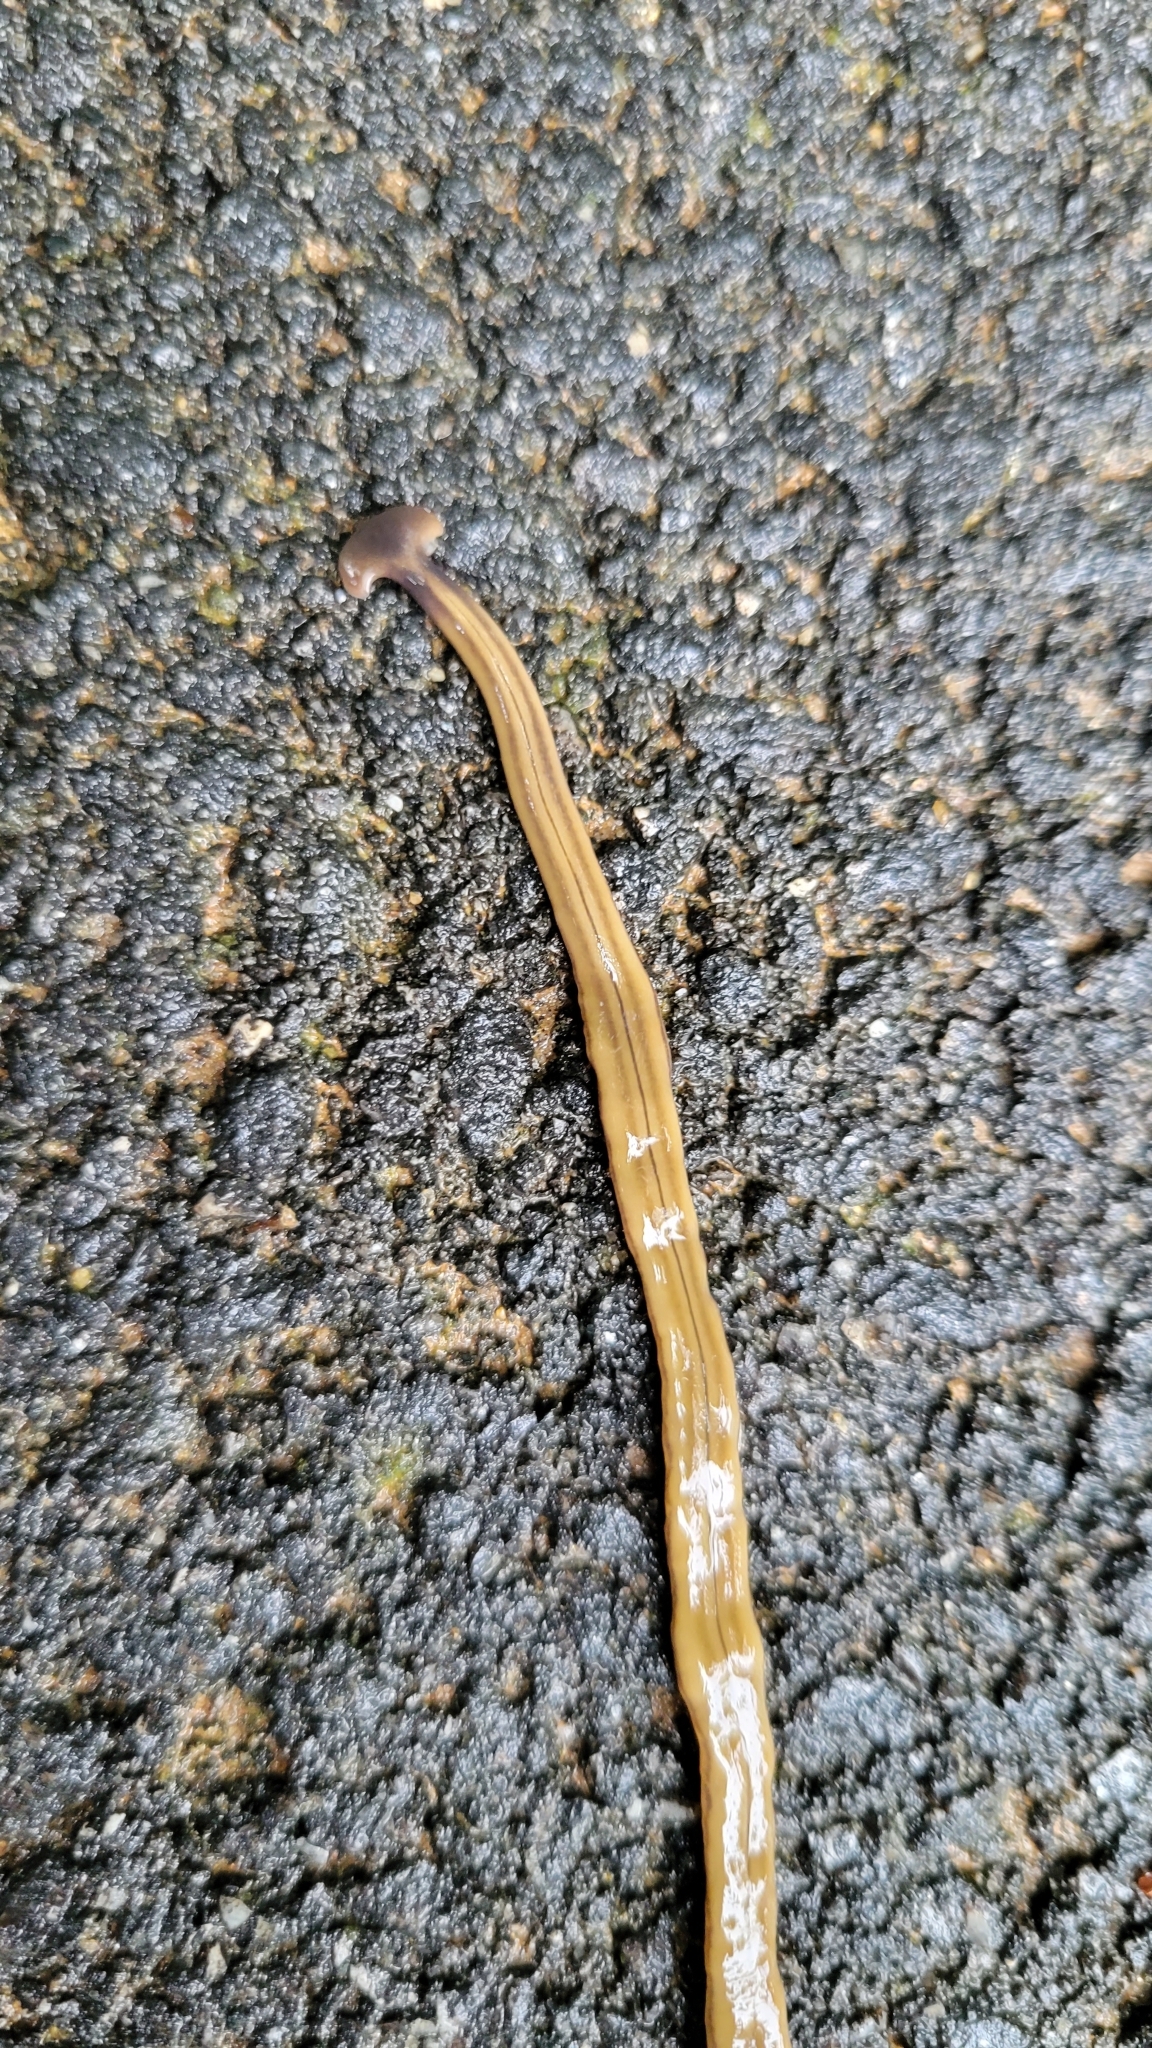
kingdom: Animalia
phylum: Platyhelminthes
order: Tricladida
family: Geoplanidae
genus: Bipalium
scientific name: Bipalium kewense
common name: Hammerhead flatworm
